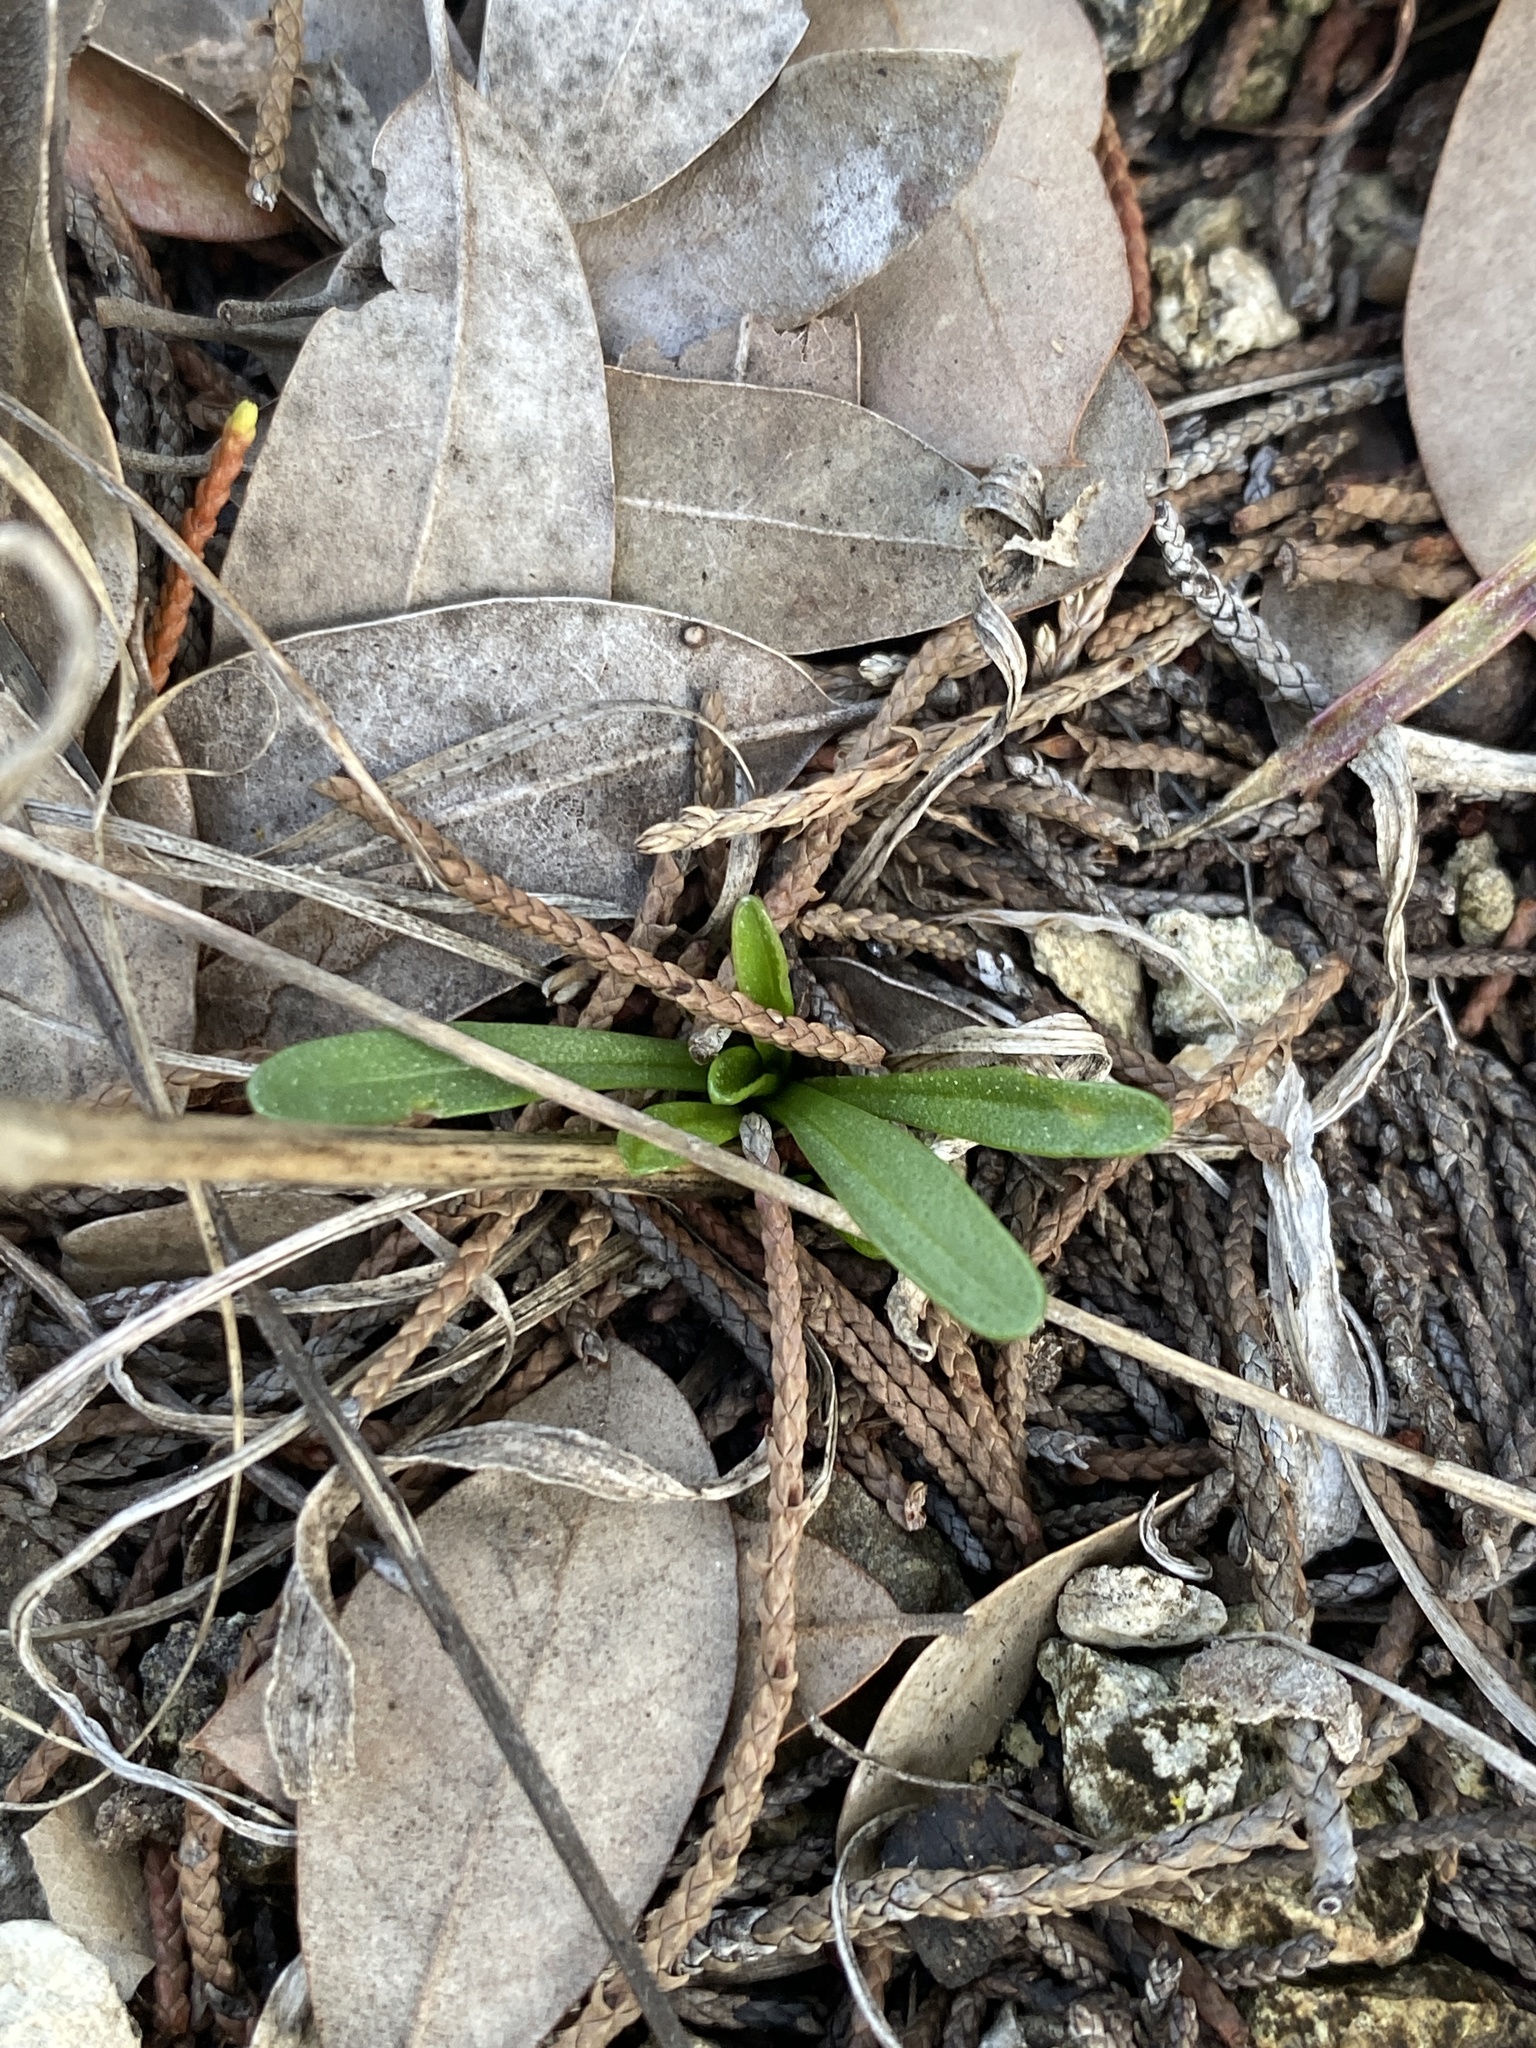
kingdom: Plantae
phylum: Tracheophyta
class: Magnoliopsida
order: Asterales
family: Asteraceae
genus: Marshallia
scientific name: Marshallia caespitosa
